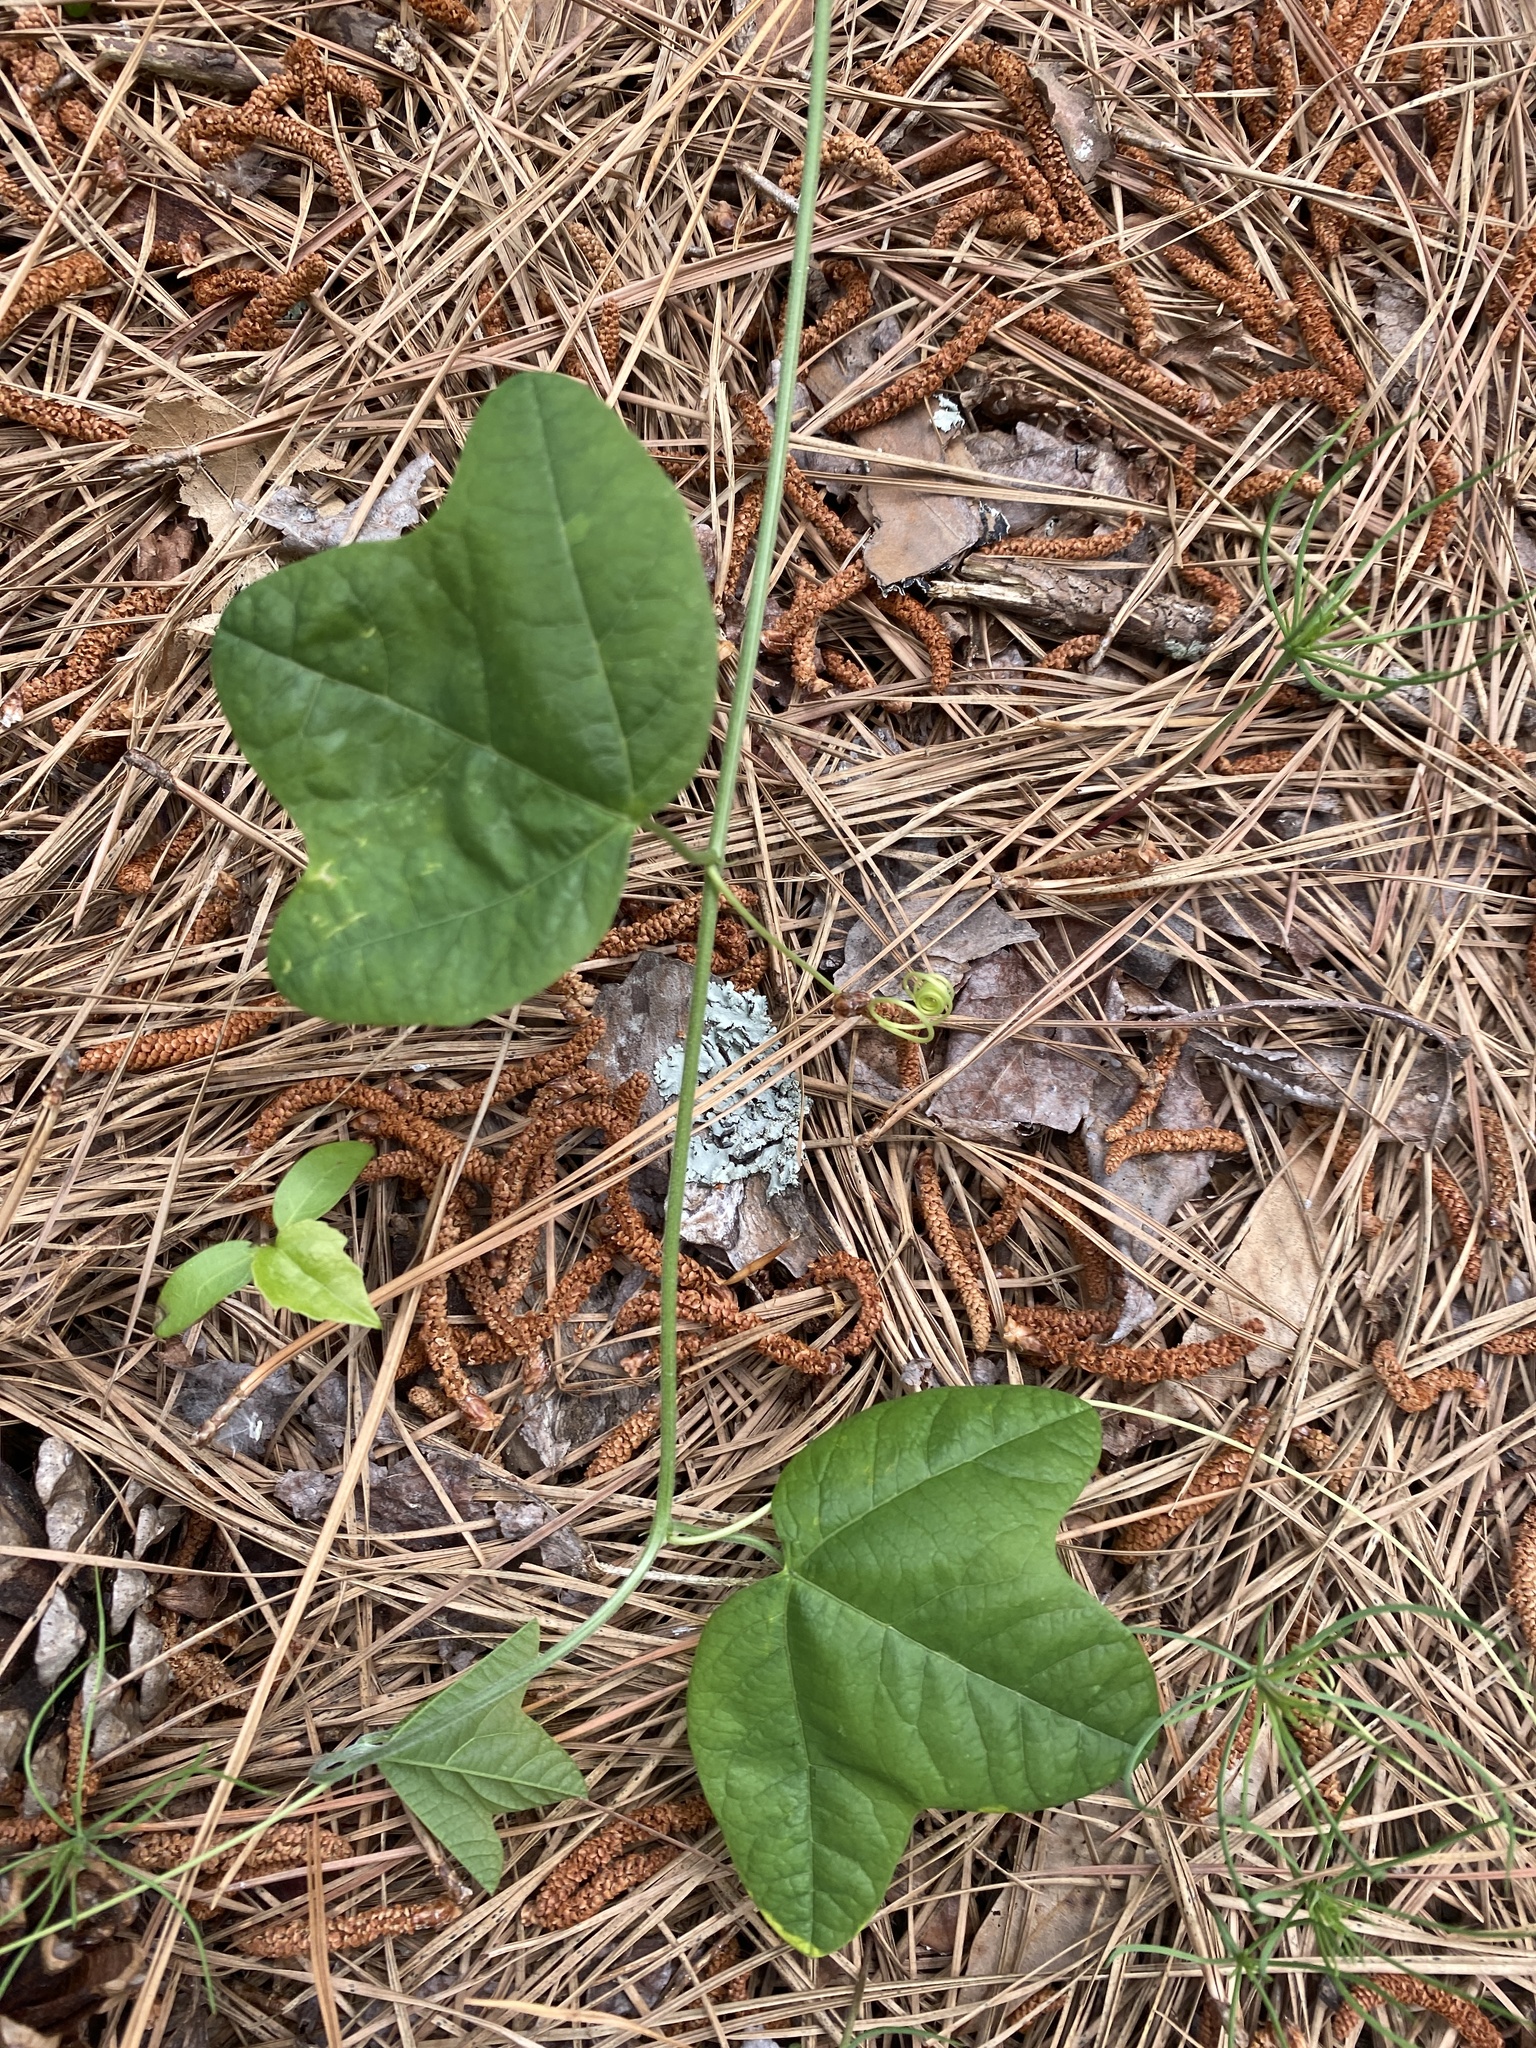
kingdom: Plantae
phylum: Tracheophyta
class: Magnoliopsida
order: Malpighiales
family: Passifloraceae
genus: Passiflora
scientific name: Passiflora lutea
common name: Yellow passionflower
